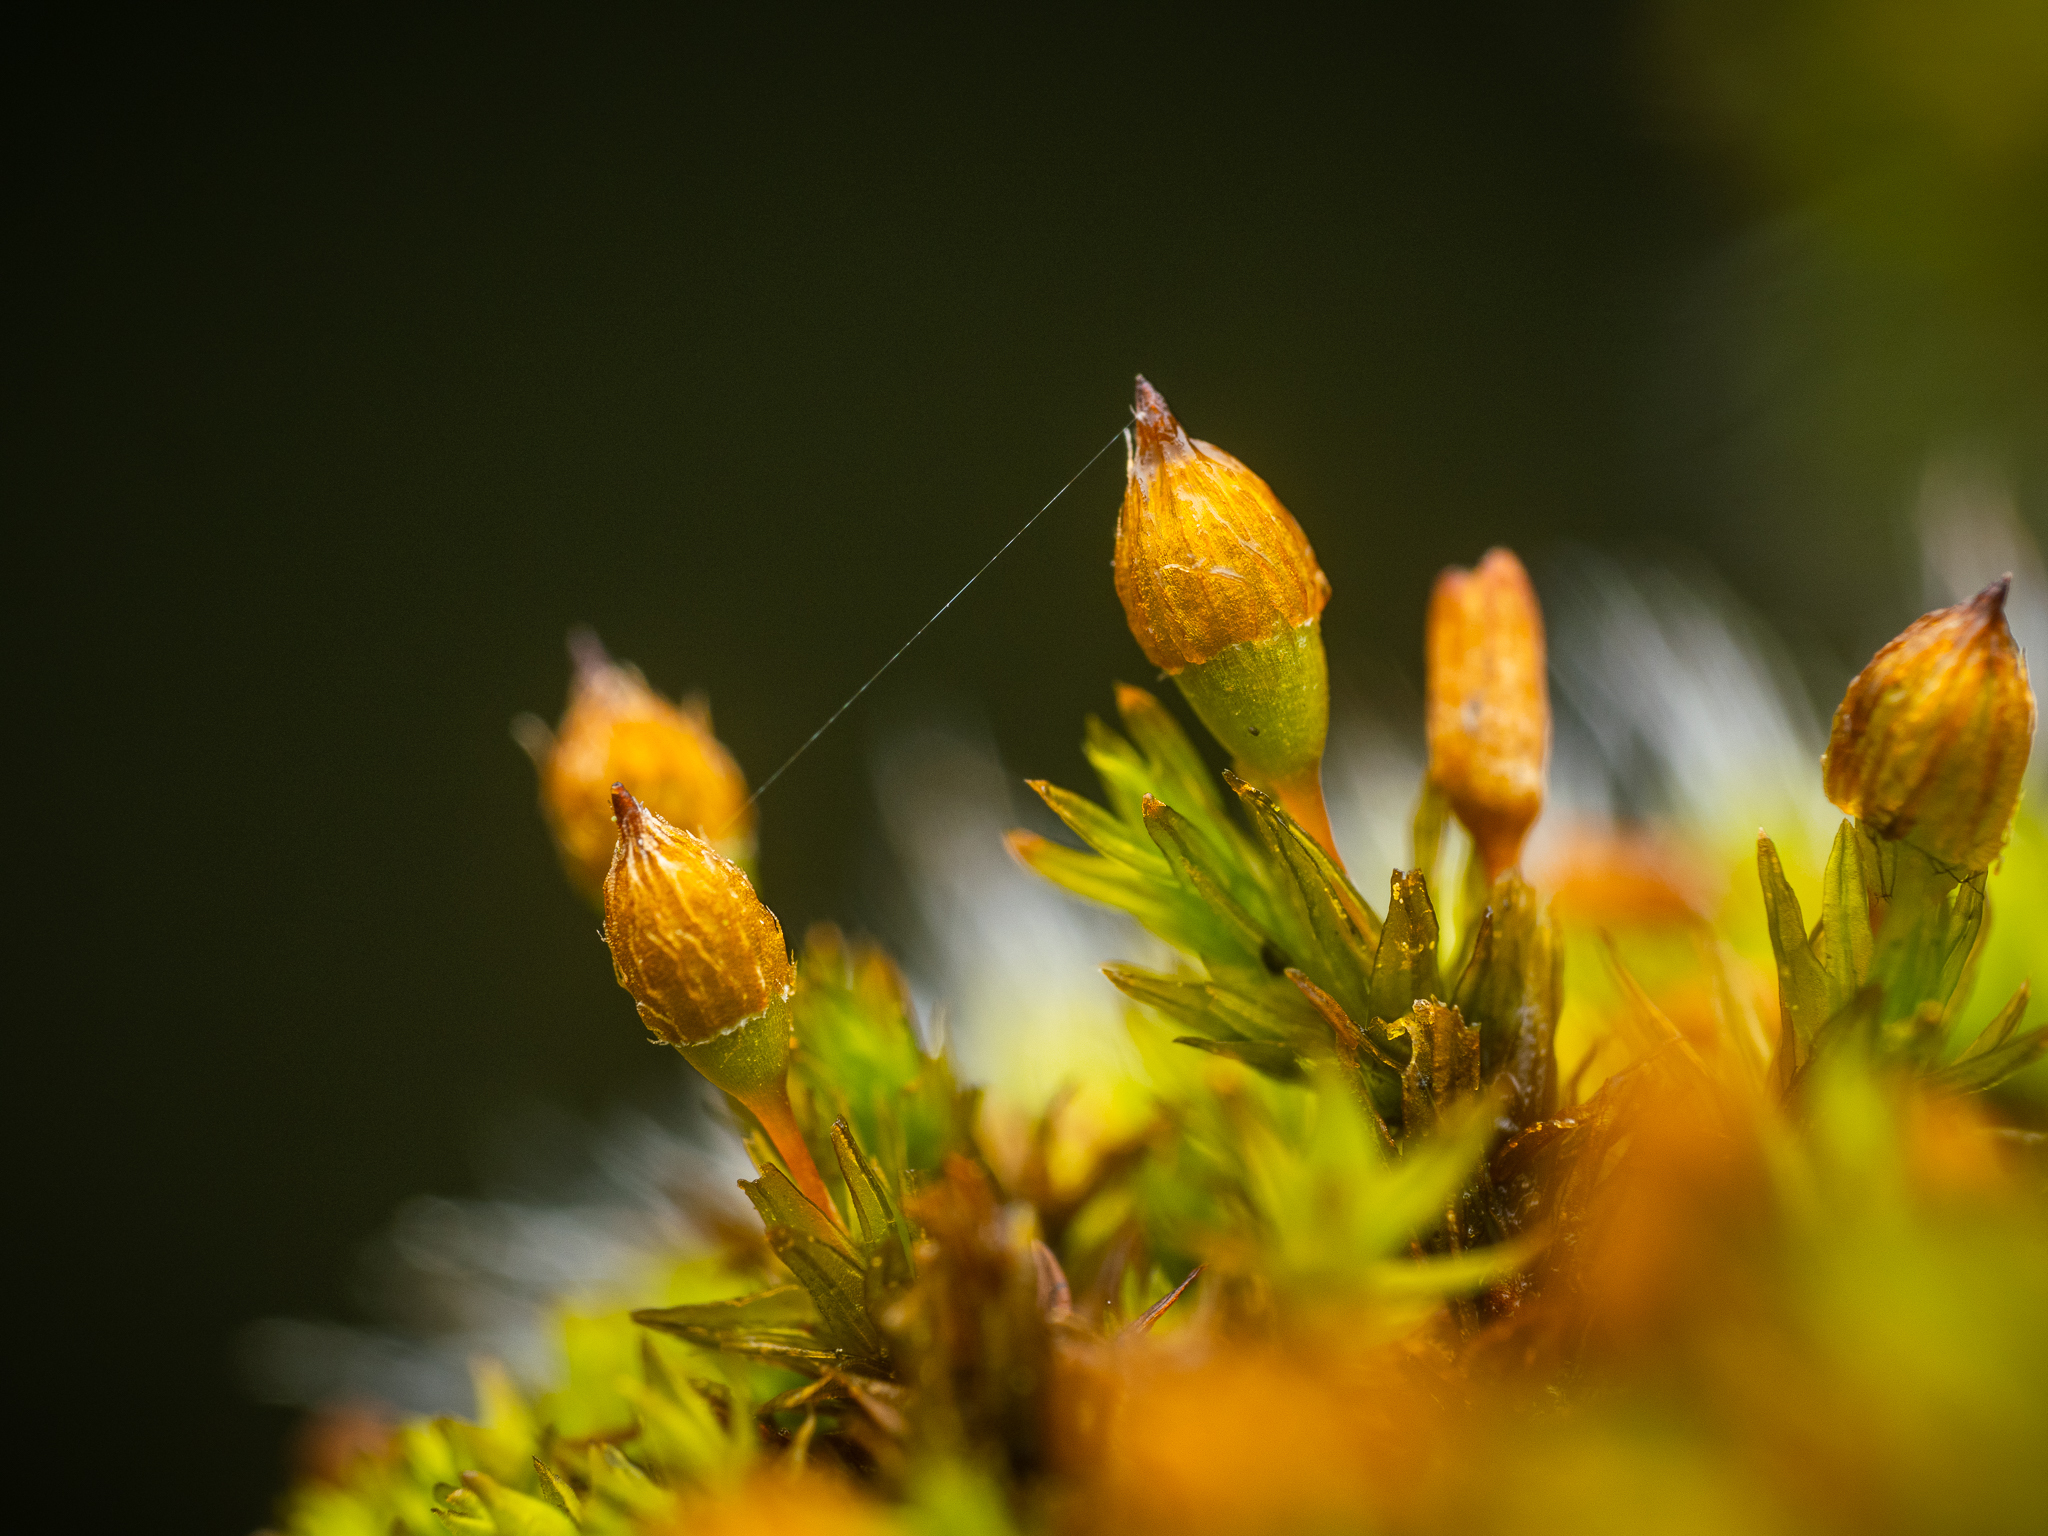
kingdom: Plantae
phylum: Bryophyta
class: Bryopsida
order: Orthotrichales
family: Orthotrichaceae
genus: Orthotrichum
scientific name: Orthotrichum anomalum
